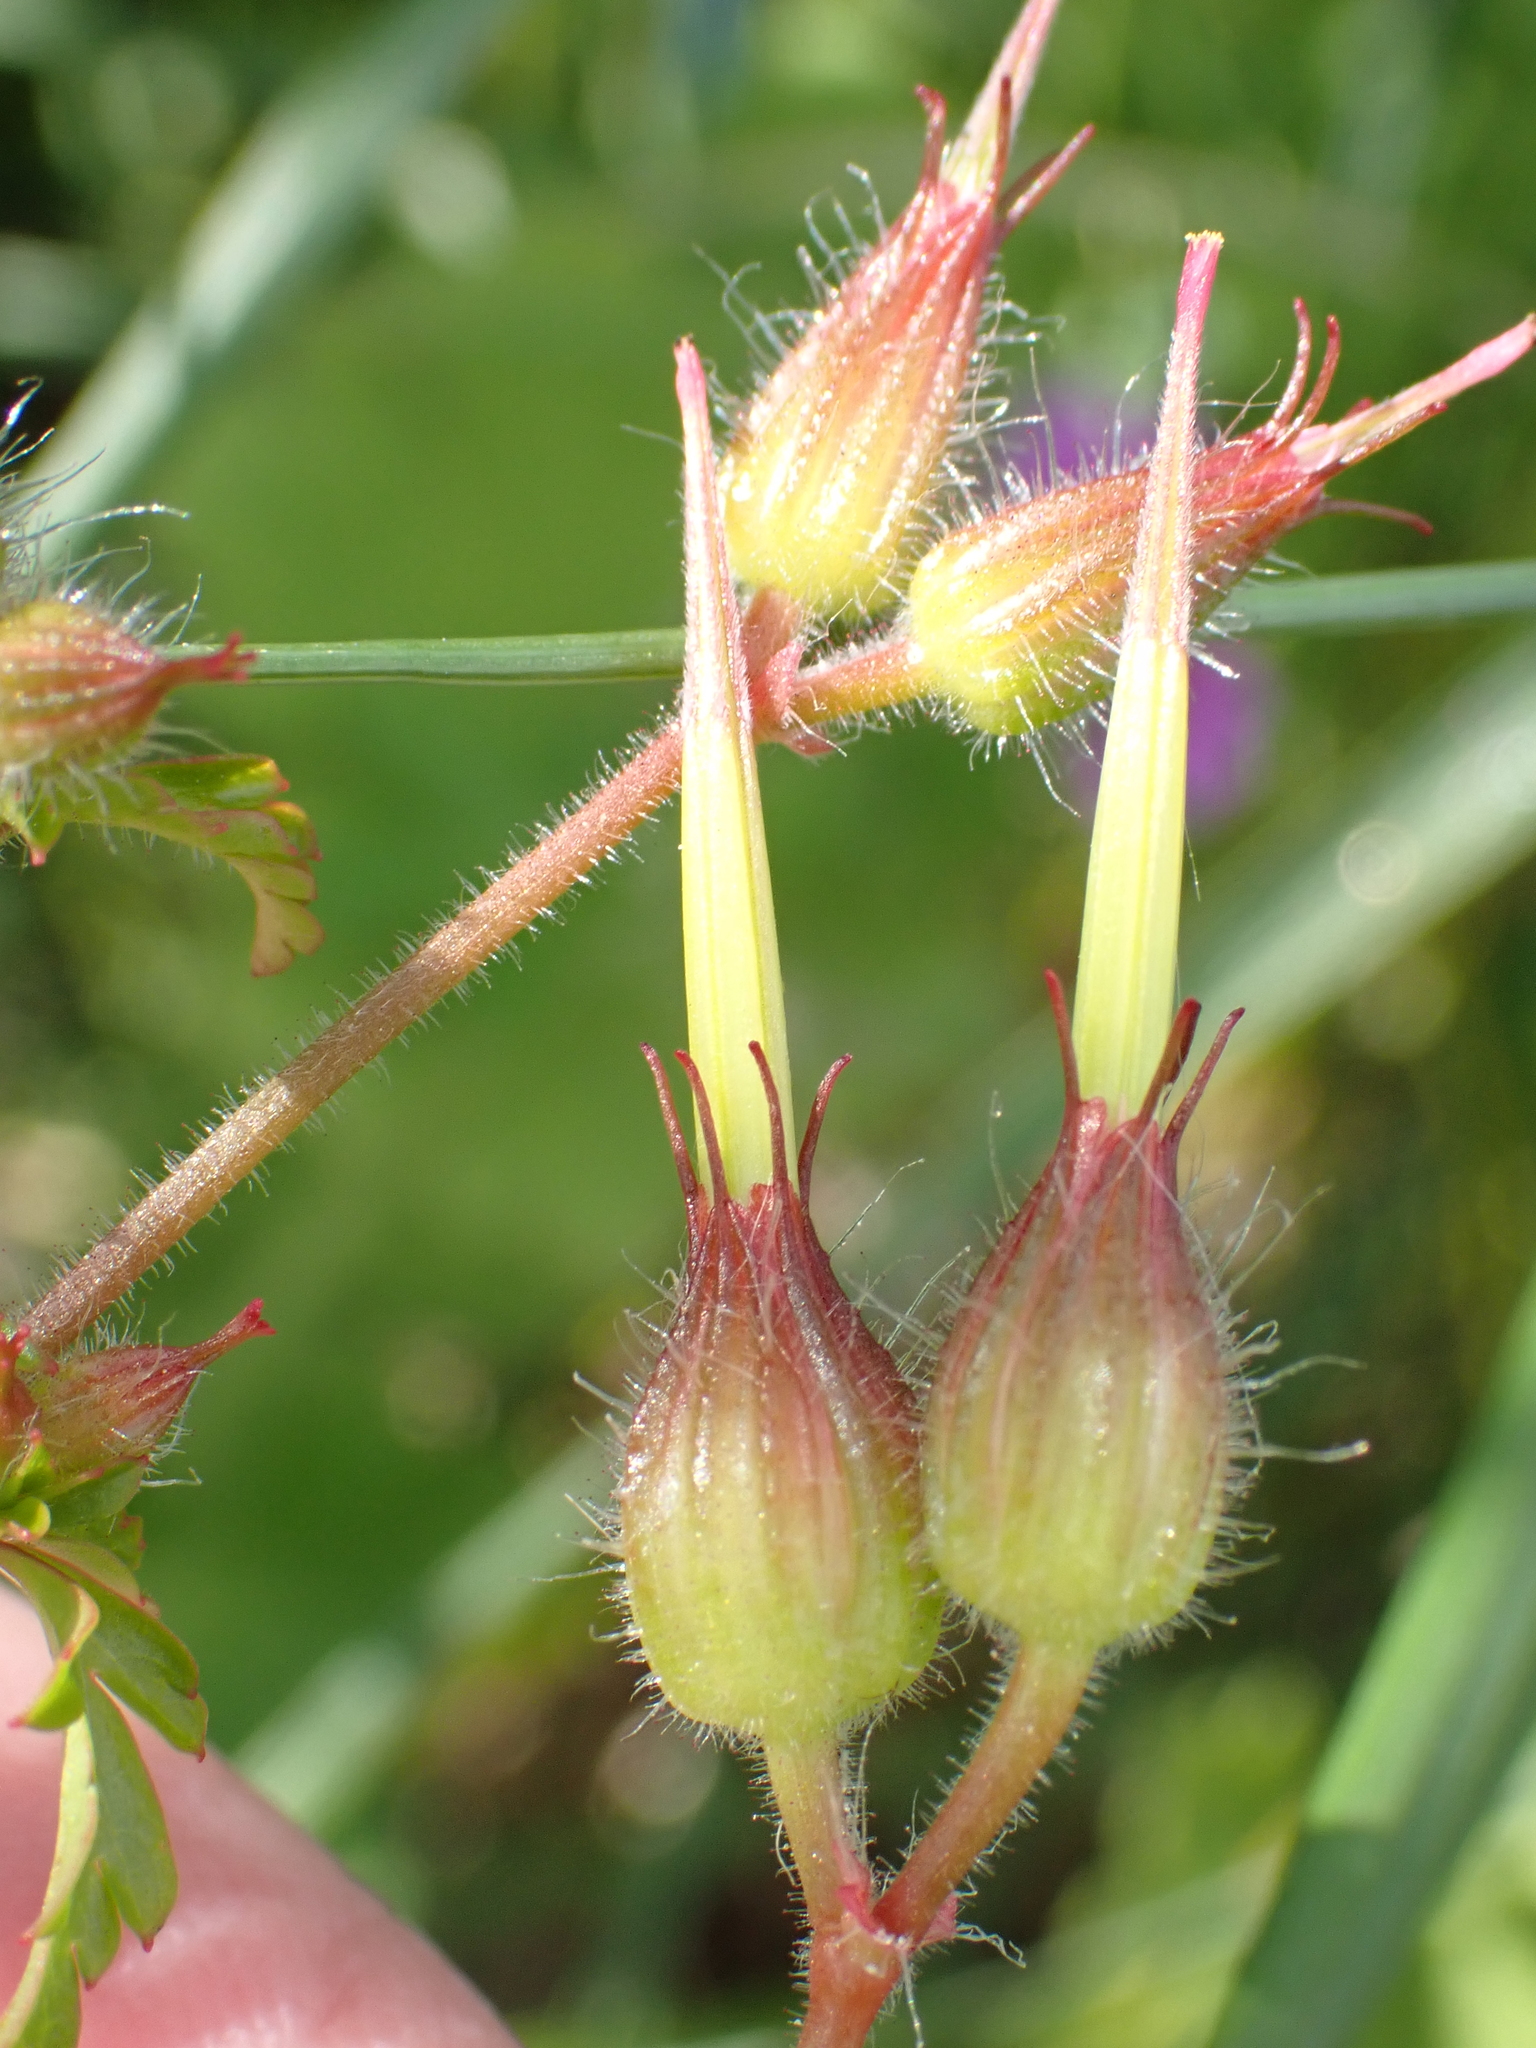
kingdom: Plantae
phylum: Tracheophyta
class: Magnoliopsida
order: Geraniales
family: Geraniaceae
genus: Geranium
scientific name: Geranium purpureum
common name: Little-robin
